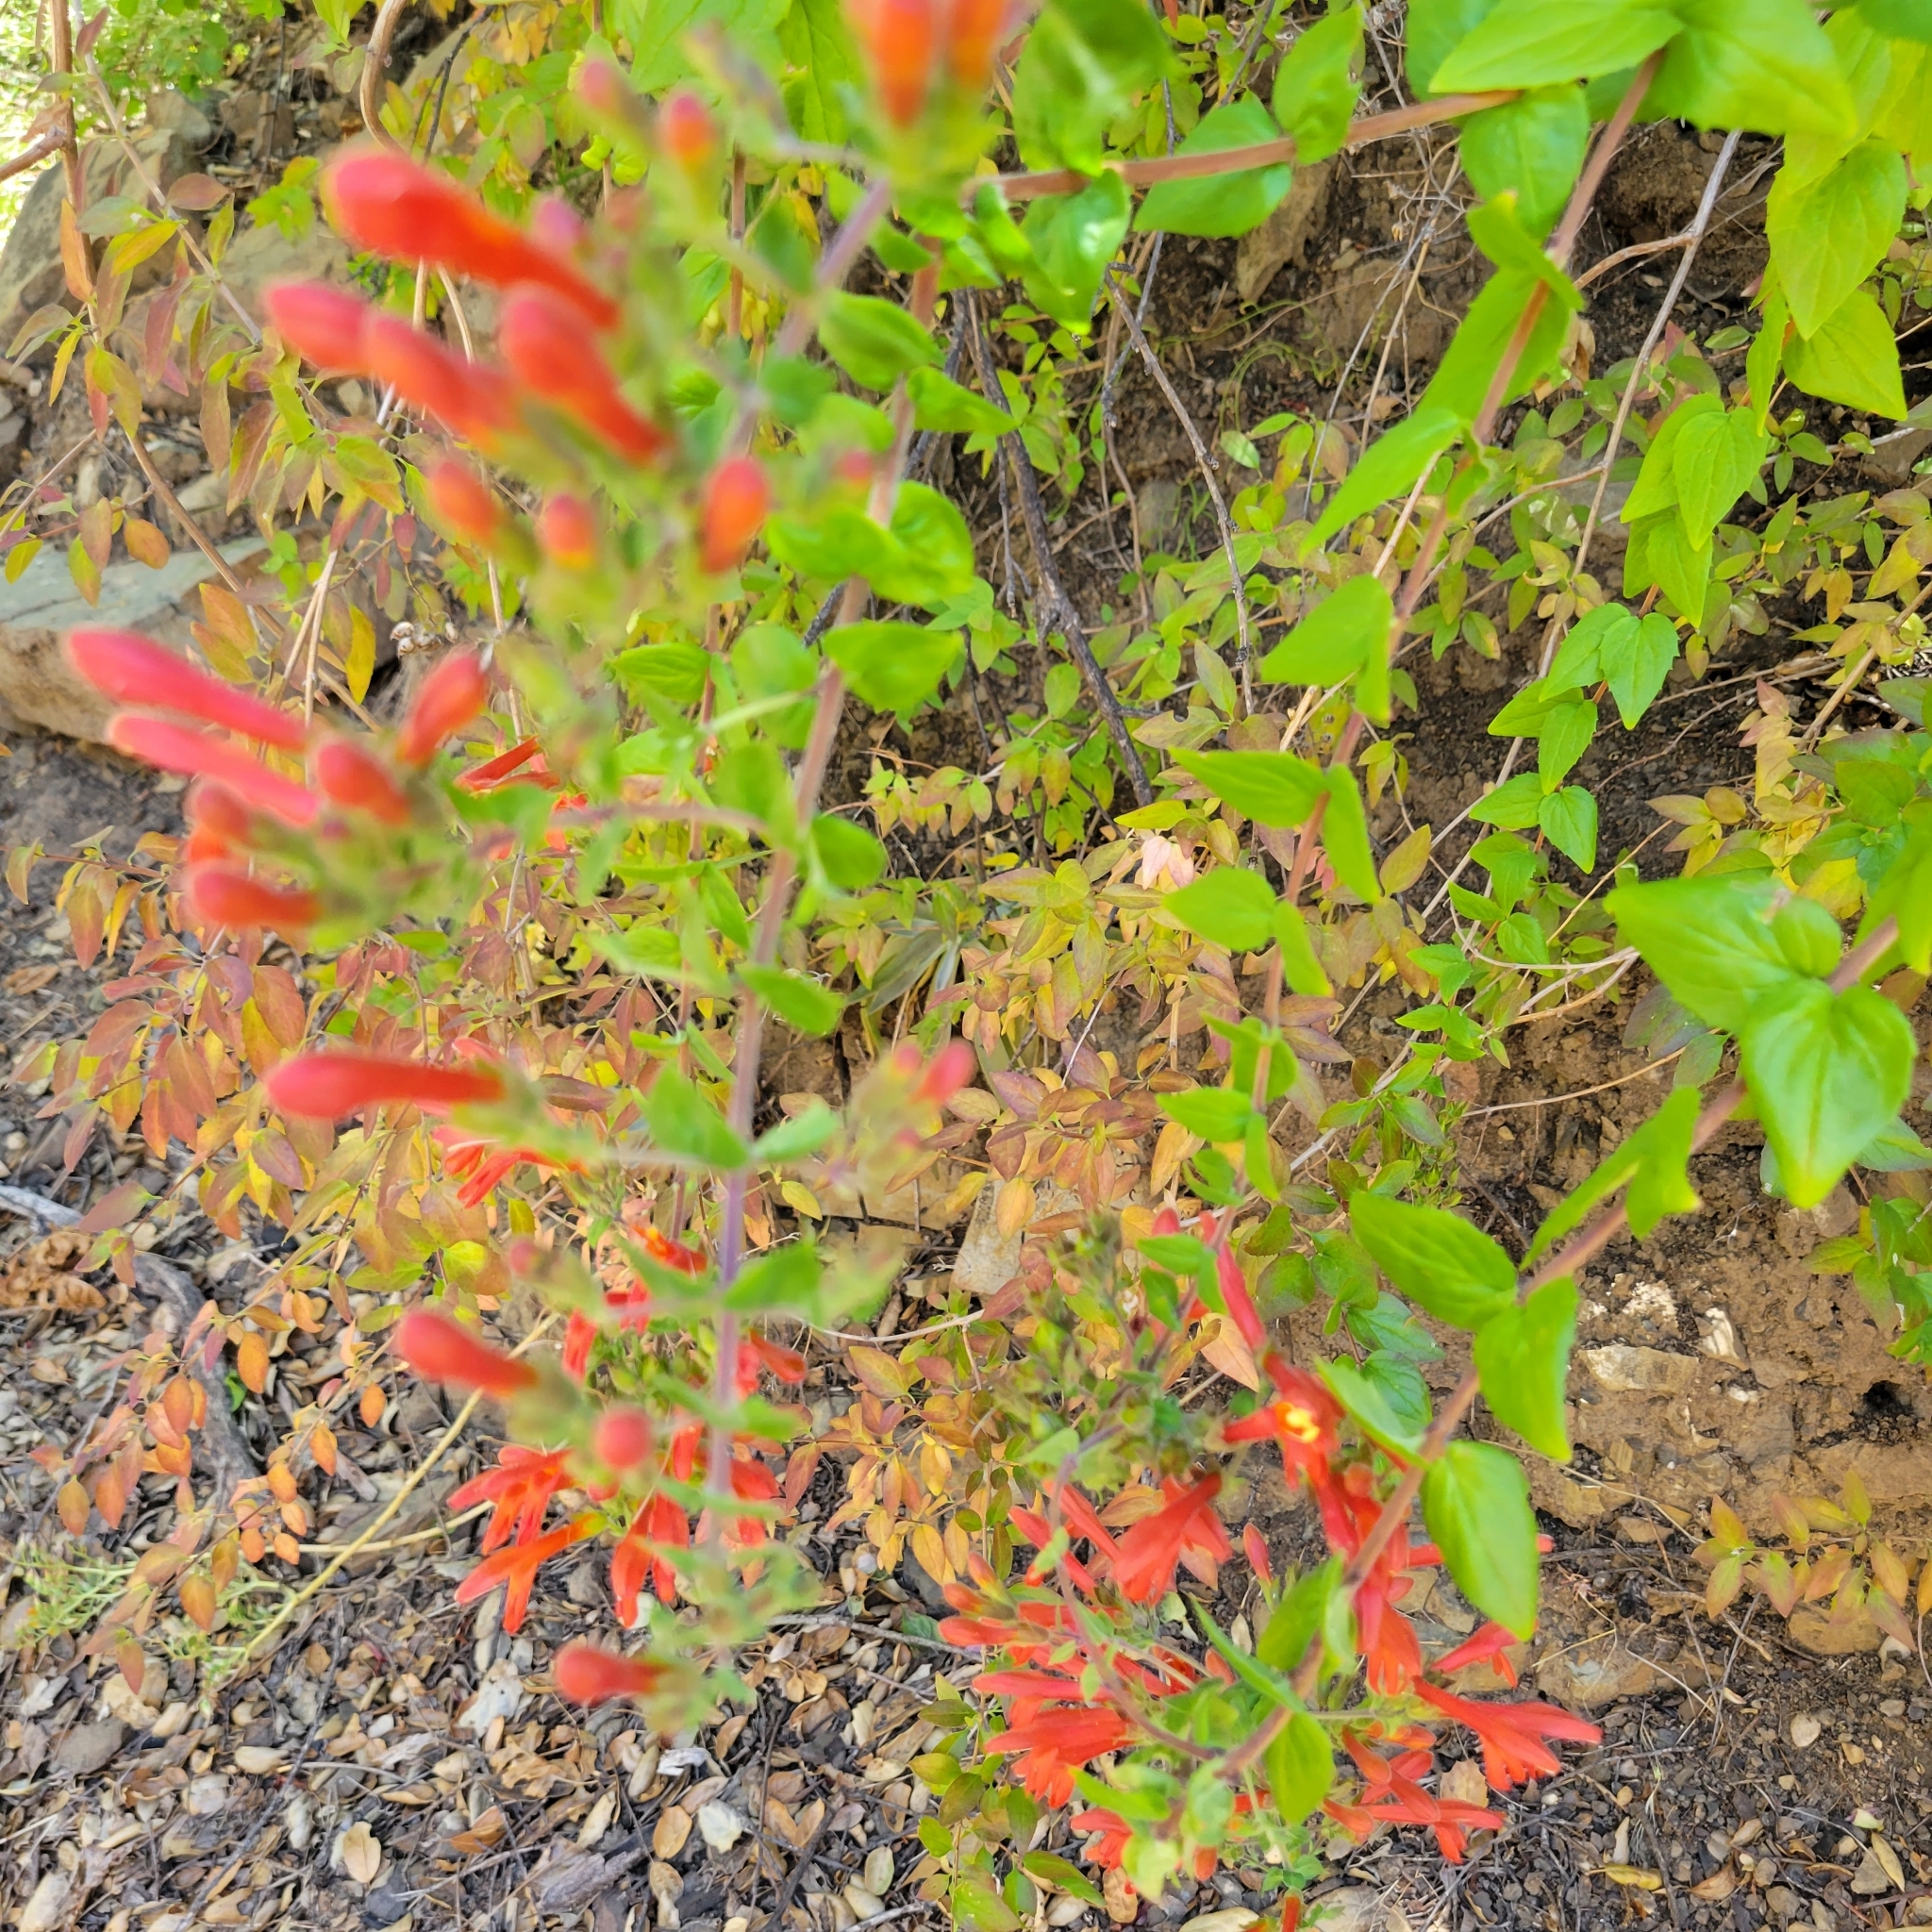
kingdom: Plantae
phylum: Tracheophyta
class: Magnoliopsida
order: Lamiales
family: Plantaginaceae
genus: Keckiella
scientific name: Keckiella cordifolia
